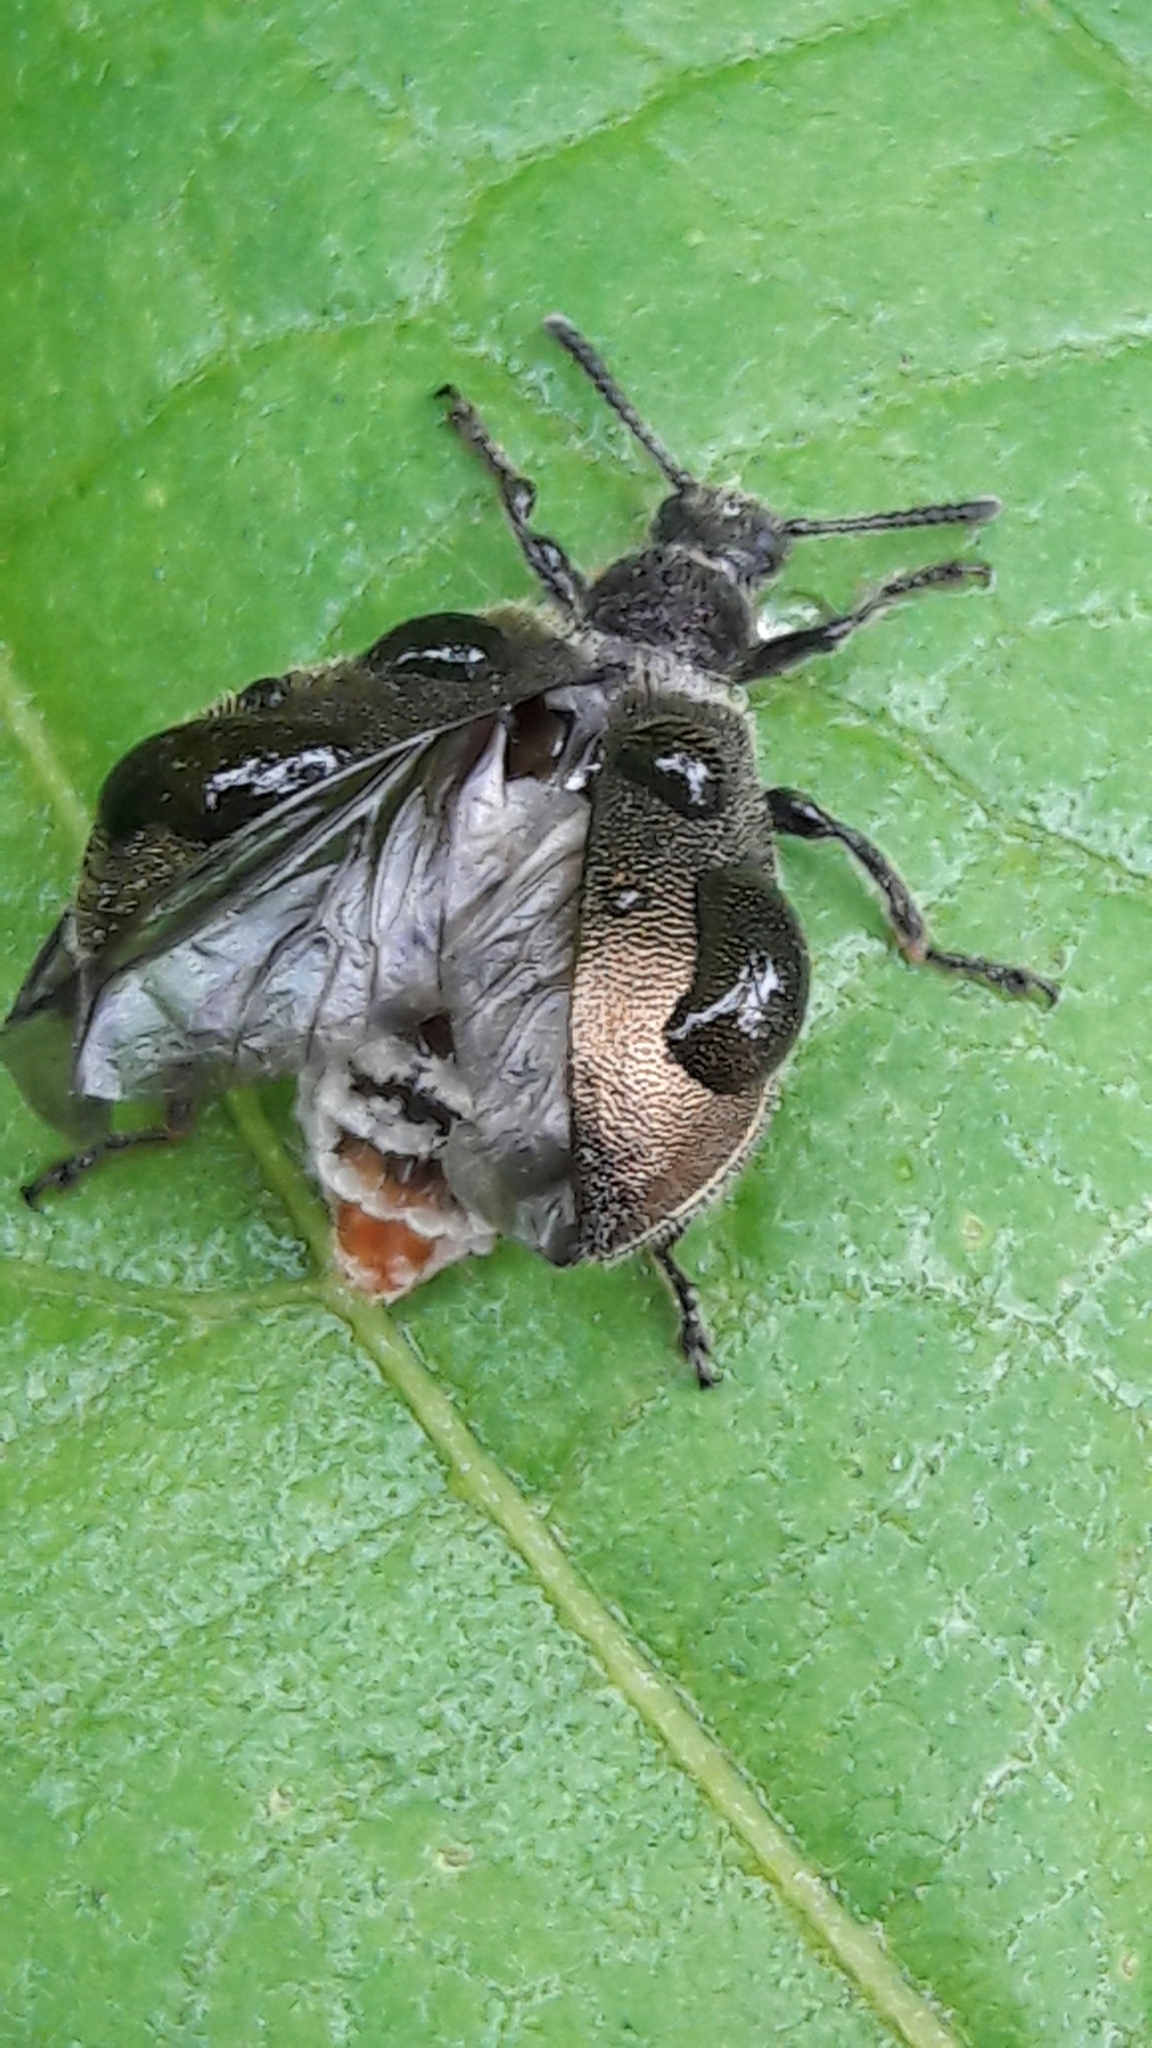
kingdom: Animalia
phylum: Arthropoda
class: Insecta
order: Coleoptera
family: Tenebrionidae
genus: Lagria
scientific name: Lagria villosa
